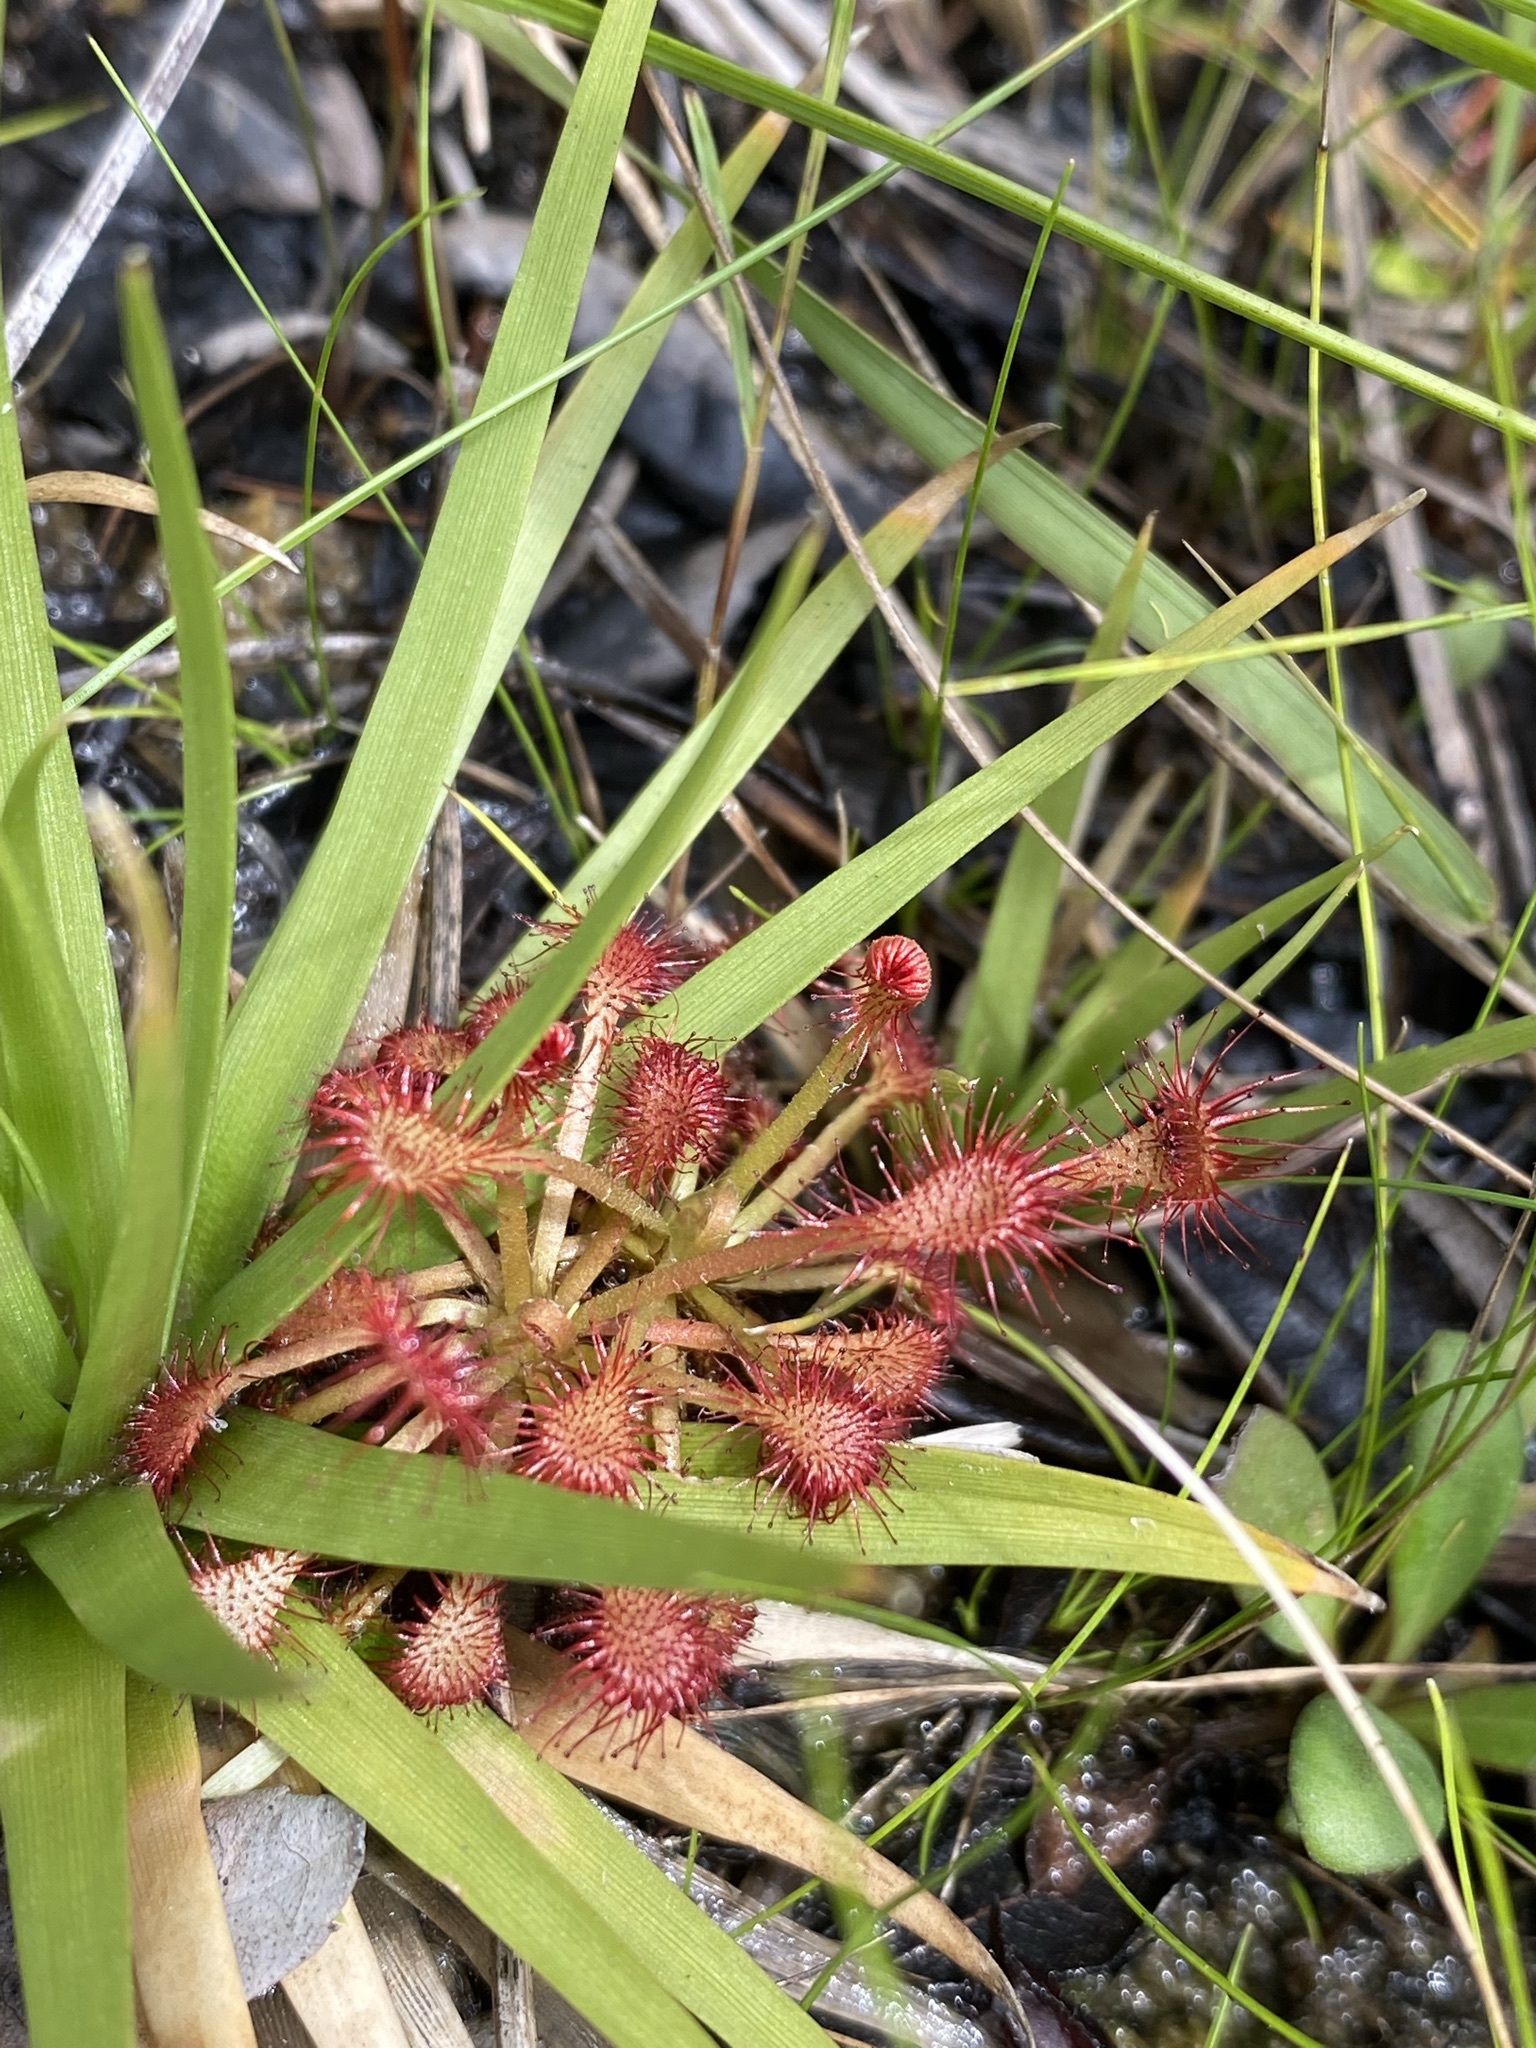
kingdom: Plantae
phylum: Tracheophyta
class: Magnoliopsida
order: Caryophyllales
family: Droseraceae
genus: Drosera
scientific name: Drosera capillaris
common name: Pink sundew
